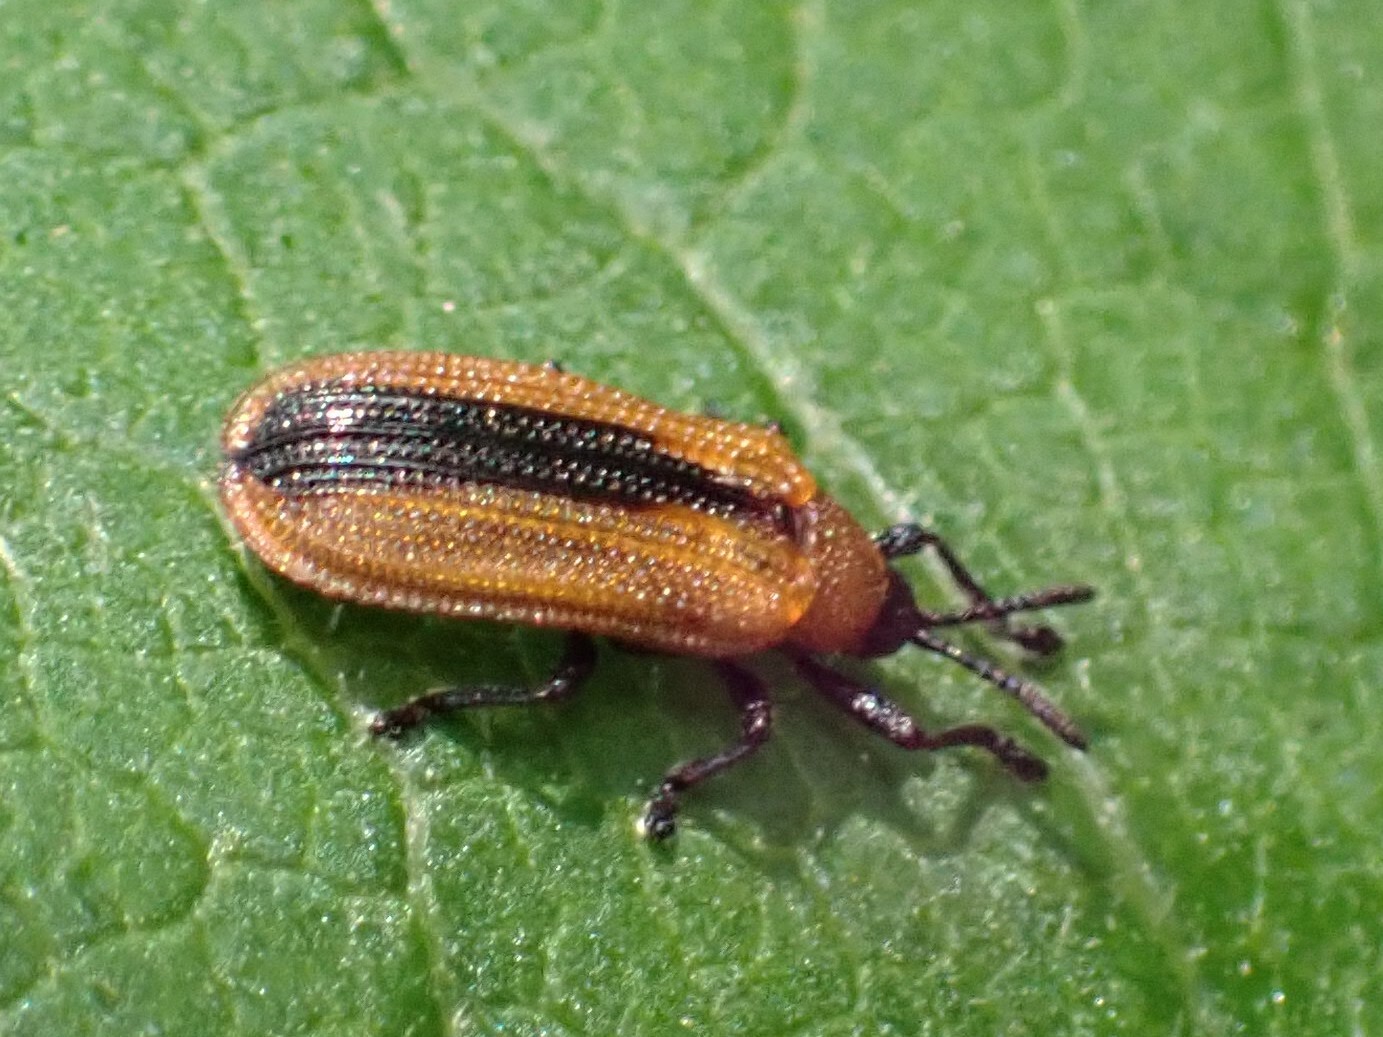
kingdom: Animalia
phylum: Arthropoda
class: Insecta
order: Coleoptera
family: Chrysomelidae
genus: Odontota
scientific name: Odontota dorsalis
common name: Locust leaf-miner beetle
